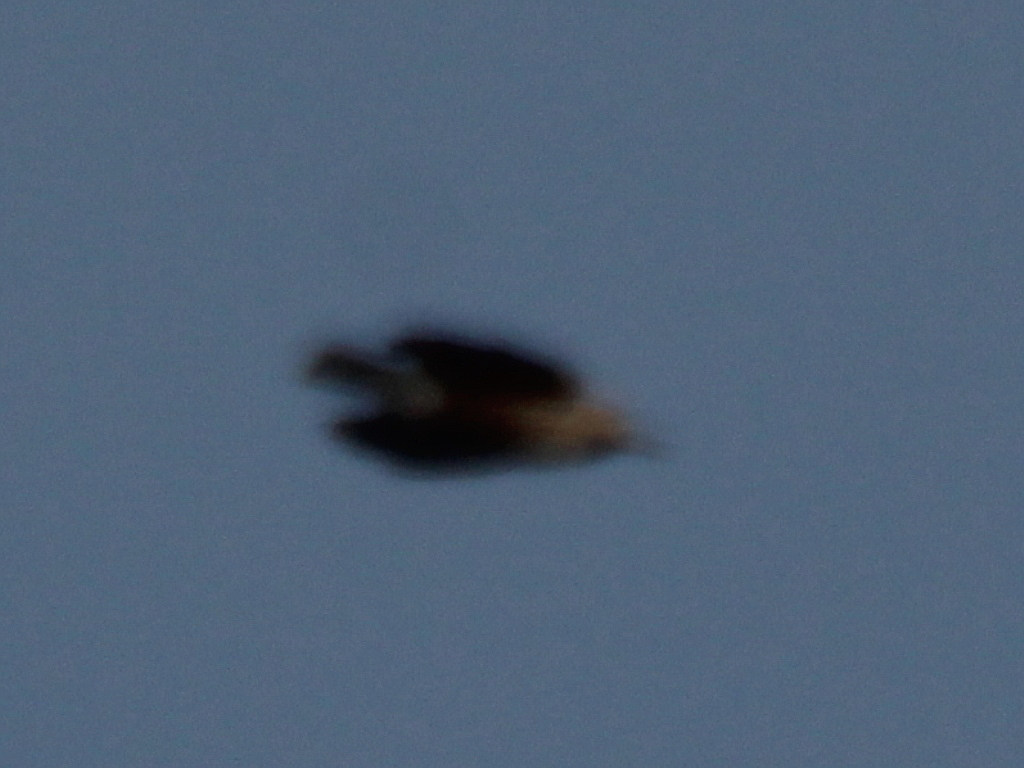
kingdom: Animalia
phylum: Chordata
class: Aves
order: Passeriformes
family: Corvidae
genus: Nucifraga
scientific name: Nucifraga caryocatactes
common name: Spotted nutcracker
